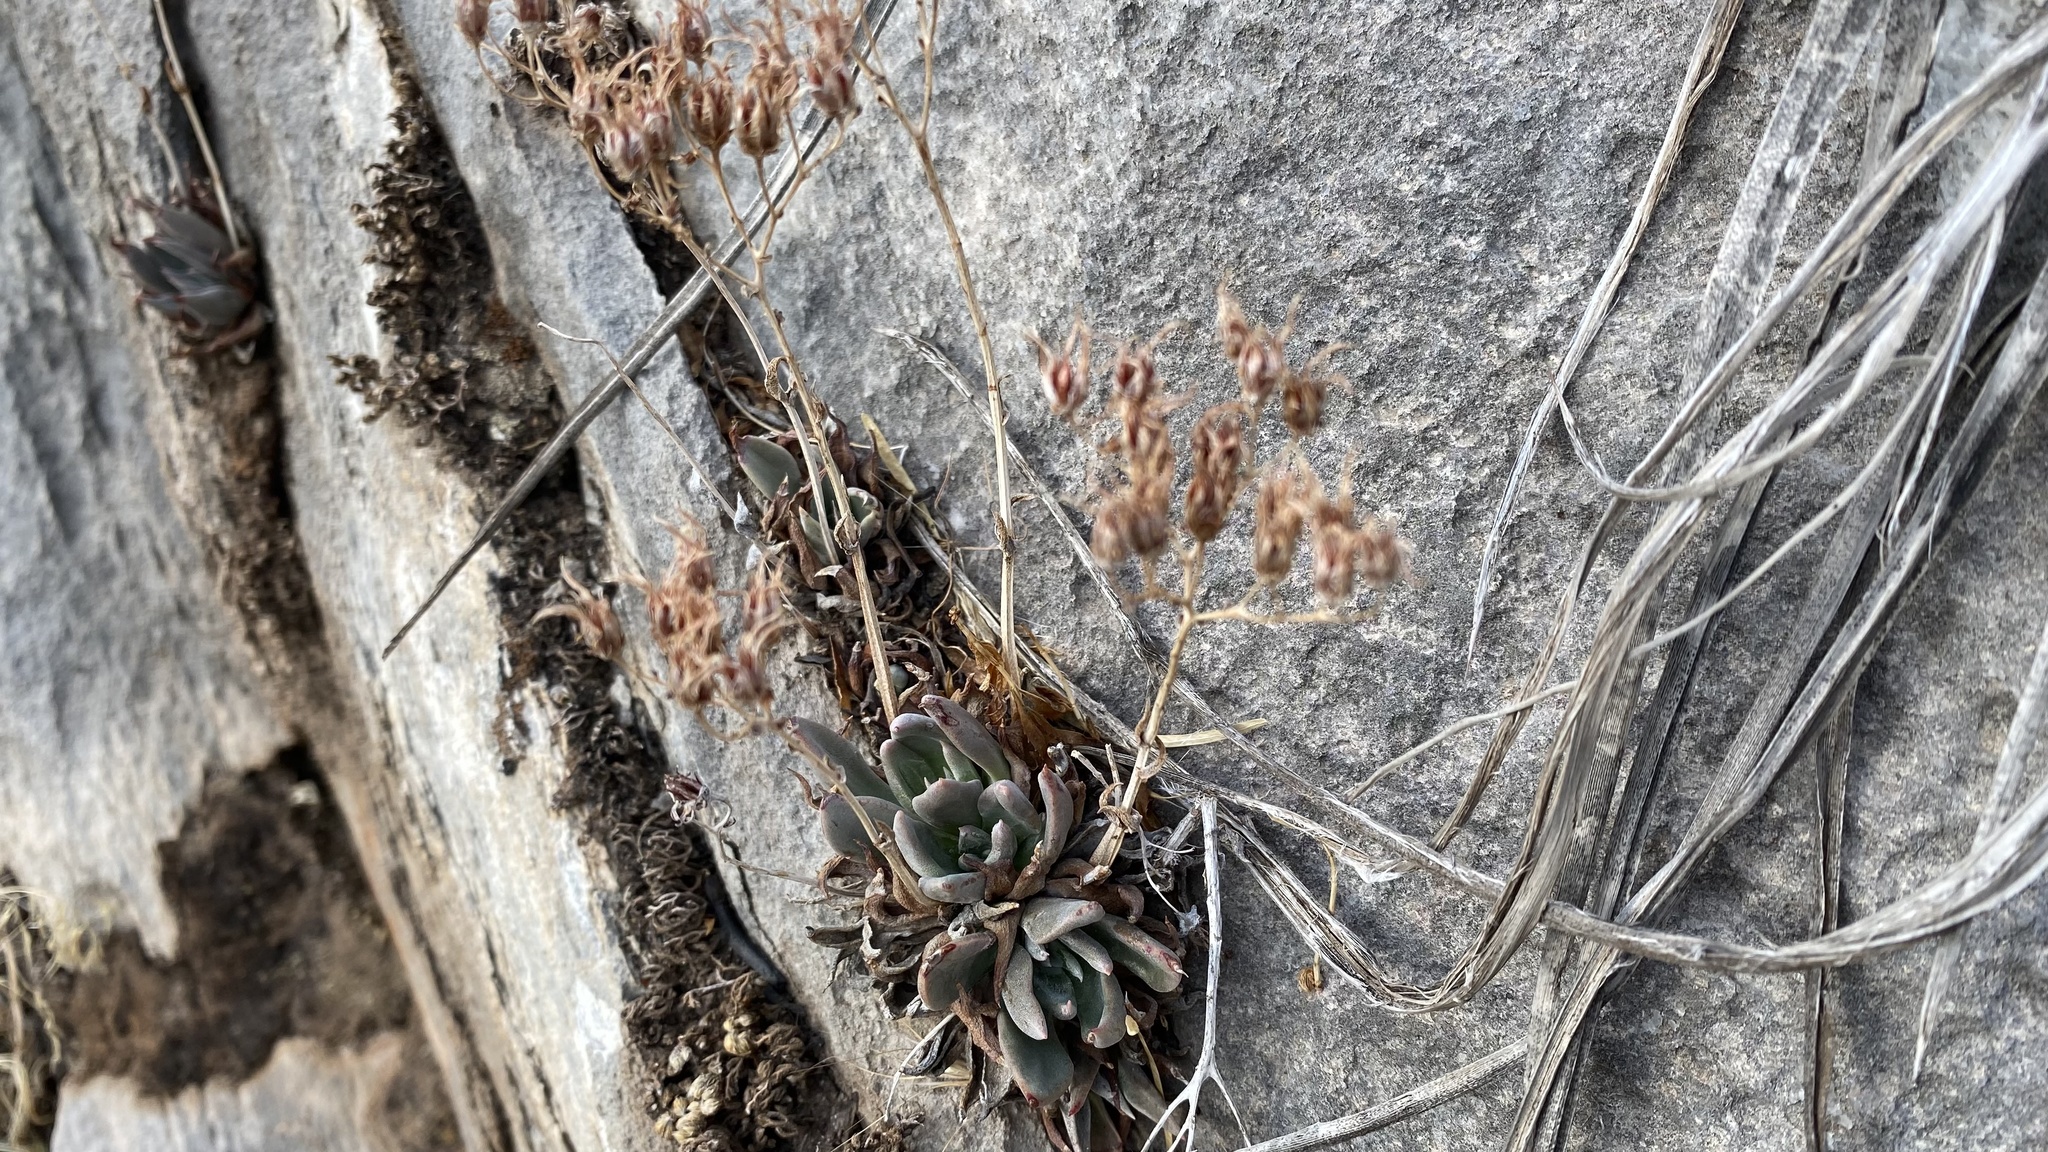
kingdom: Plantae
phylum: Tracheophyta
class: Magnoliopsida
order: Saxifragales
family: Crassulaceae
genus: Dudleya
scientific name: Dudleya cymosa
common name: Canyon dudleya
